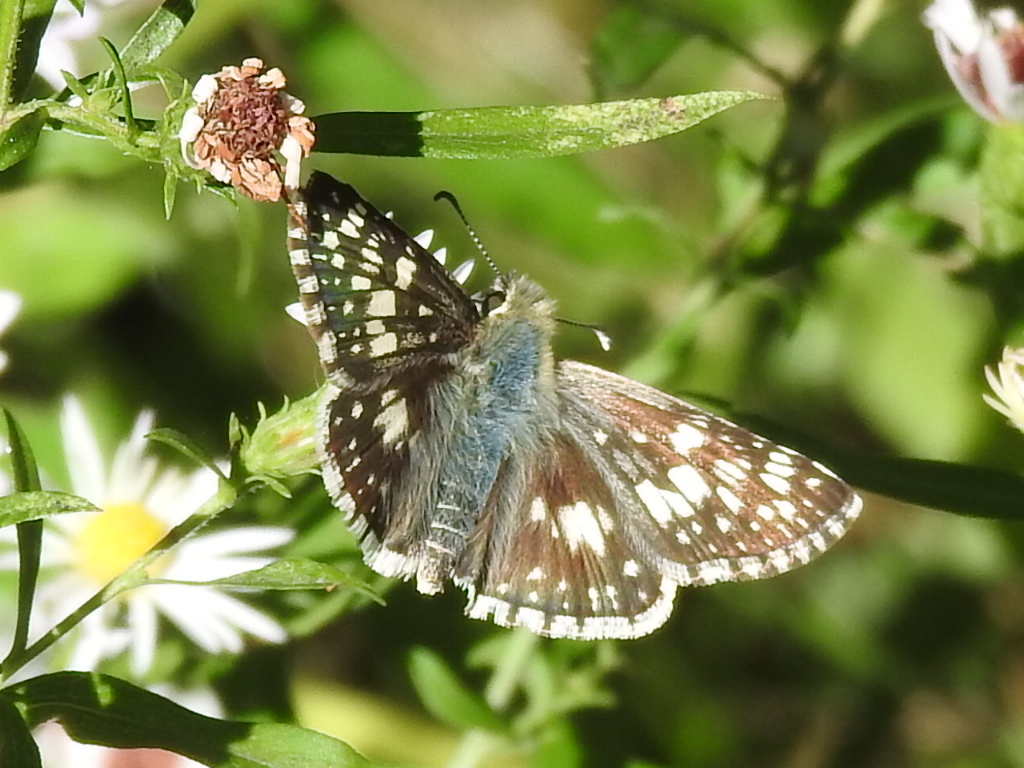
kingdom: Animalia
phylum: Arthropoda
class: Insecta
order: Lepidoptera
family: Hesperiidae
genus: Burnsius
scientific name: Burnsius
